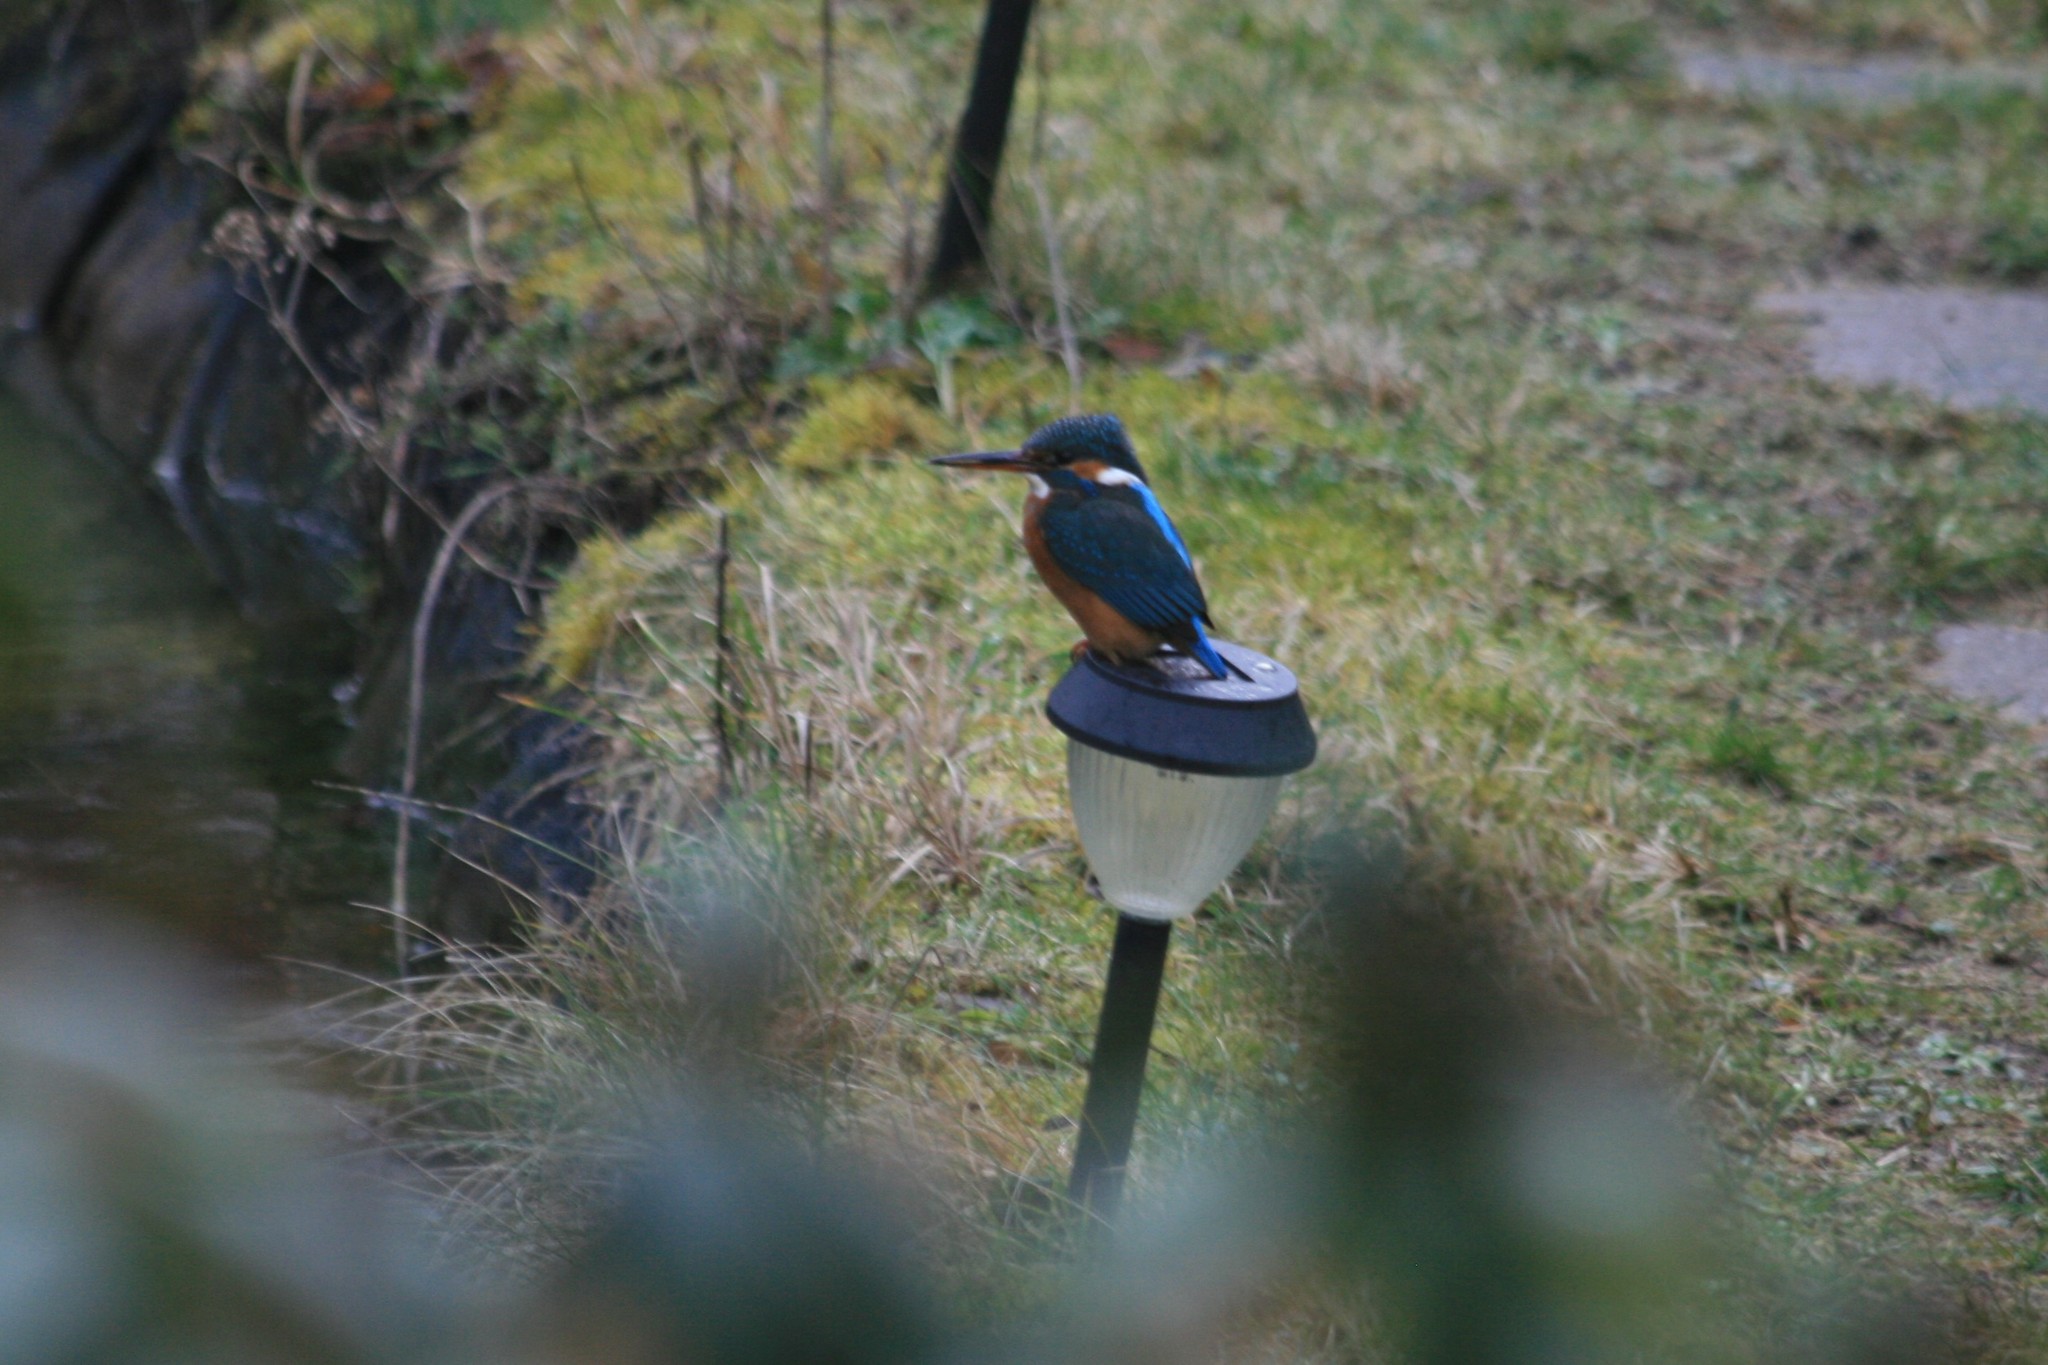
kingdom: Animalia
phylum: Chordata
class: Aves
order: Coraciiformes
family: Alcedinidae
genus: Alcedo
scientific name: Alcedo atthis
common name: Common kingfisher
